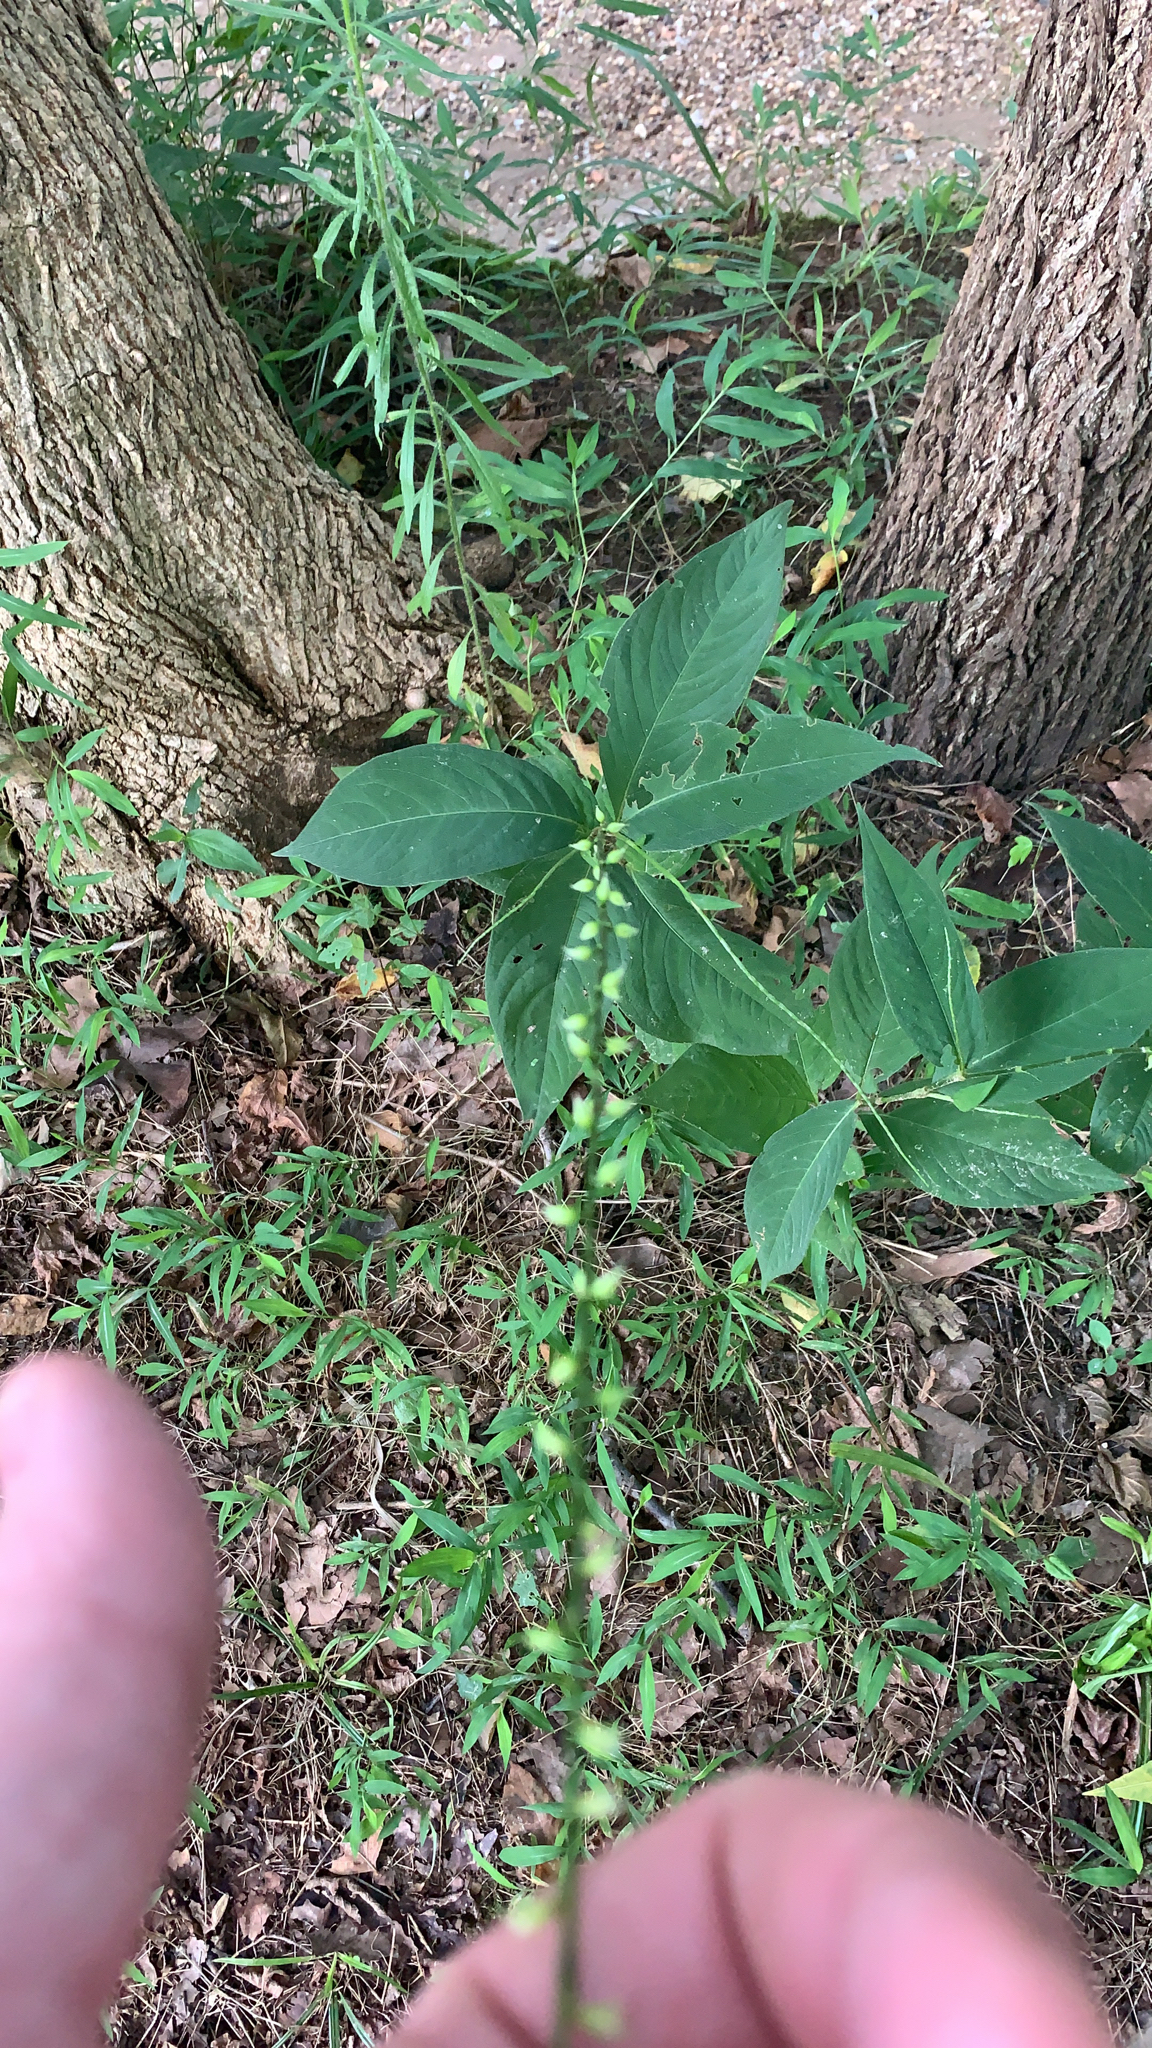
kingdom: Plantae
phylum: Tracheophyta
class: Magnoliopsida
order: Caryophyllales
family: Polygonaceae
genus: Persicaria
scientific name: Persicaria virginiana
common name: Jumpseed
